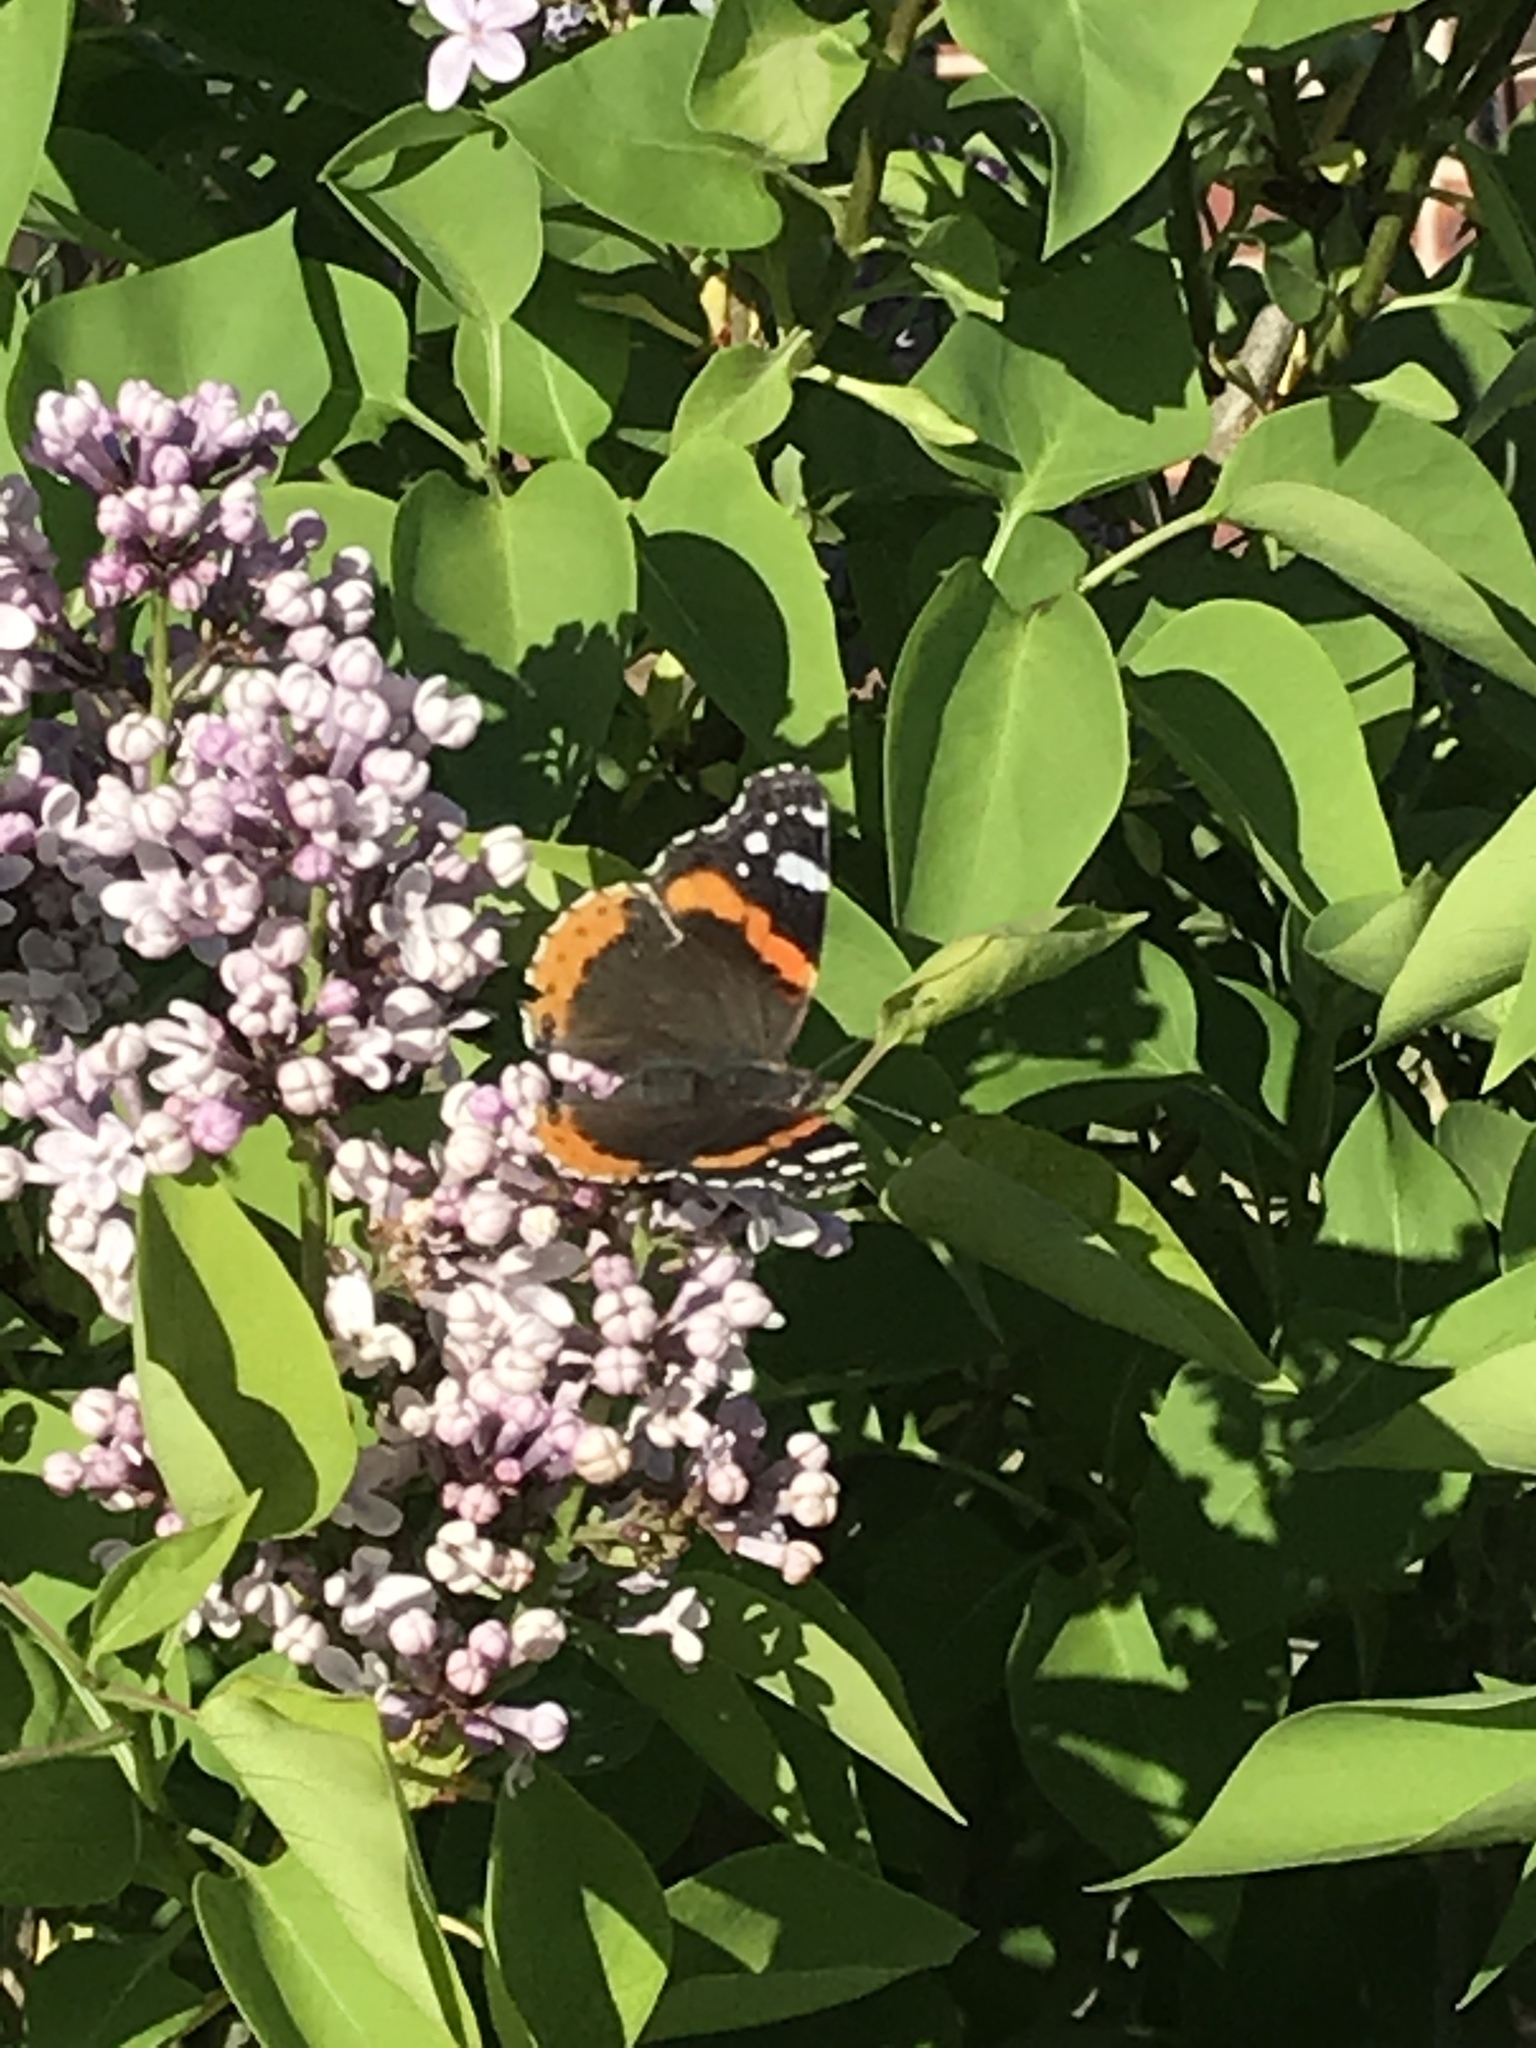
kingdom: Animalia
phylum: Arthropoda
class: Insecta
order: Lepidoptera
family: Nymphalidae
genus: Vanessa
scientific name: Vanessa atalanta
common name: Red admiral
